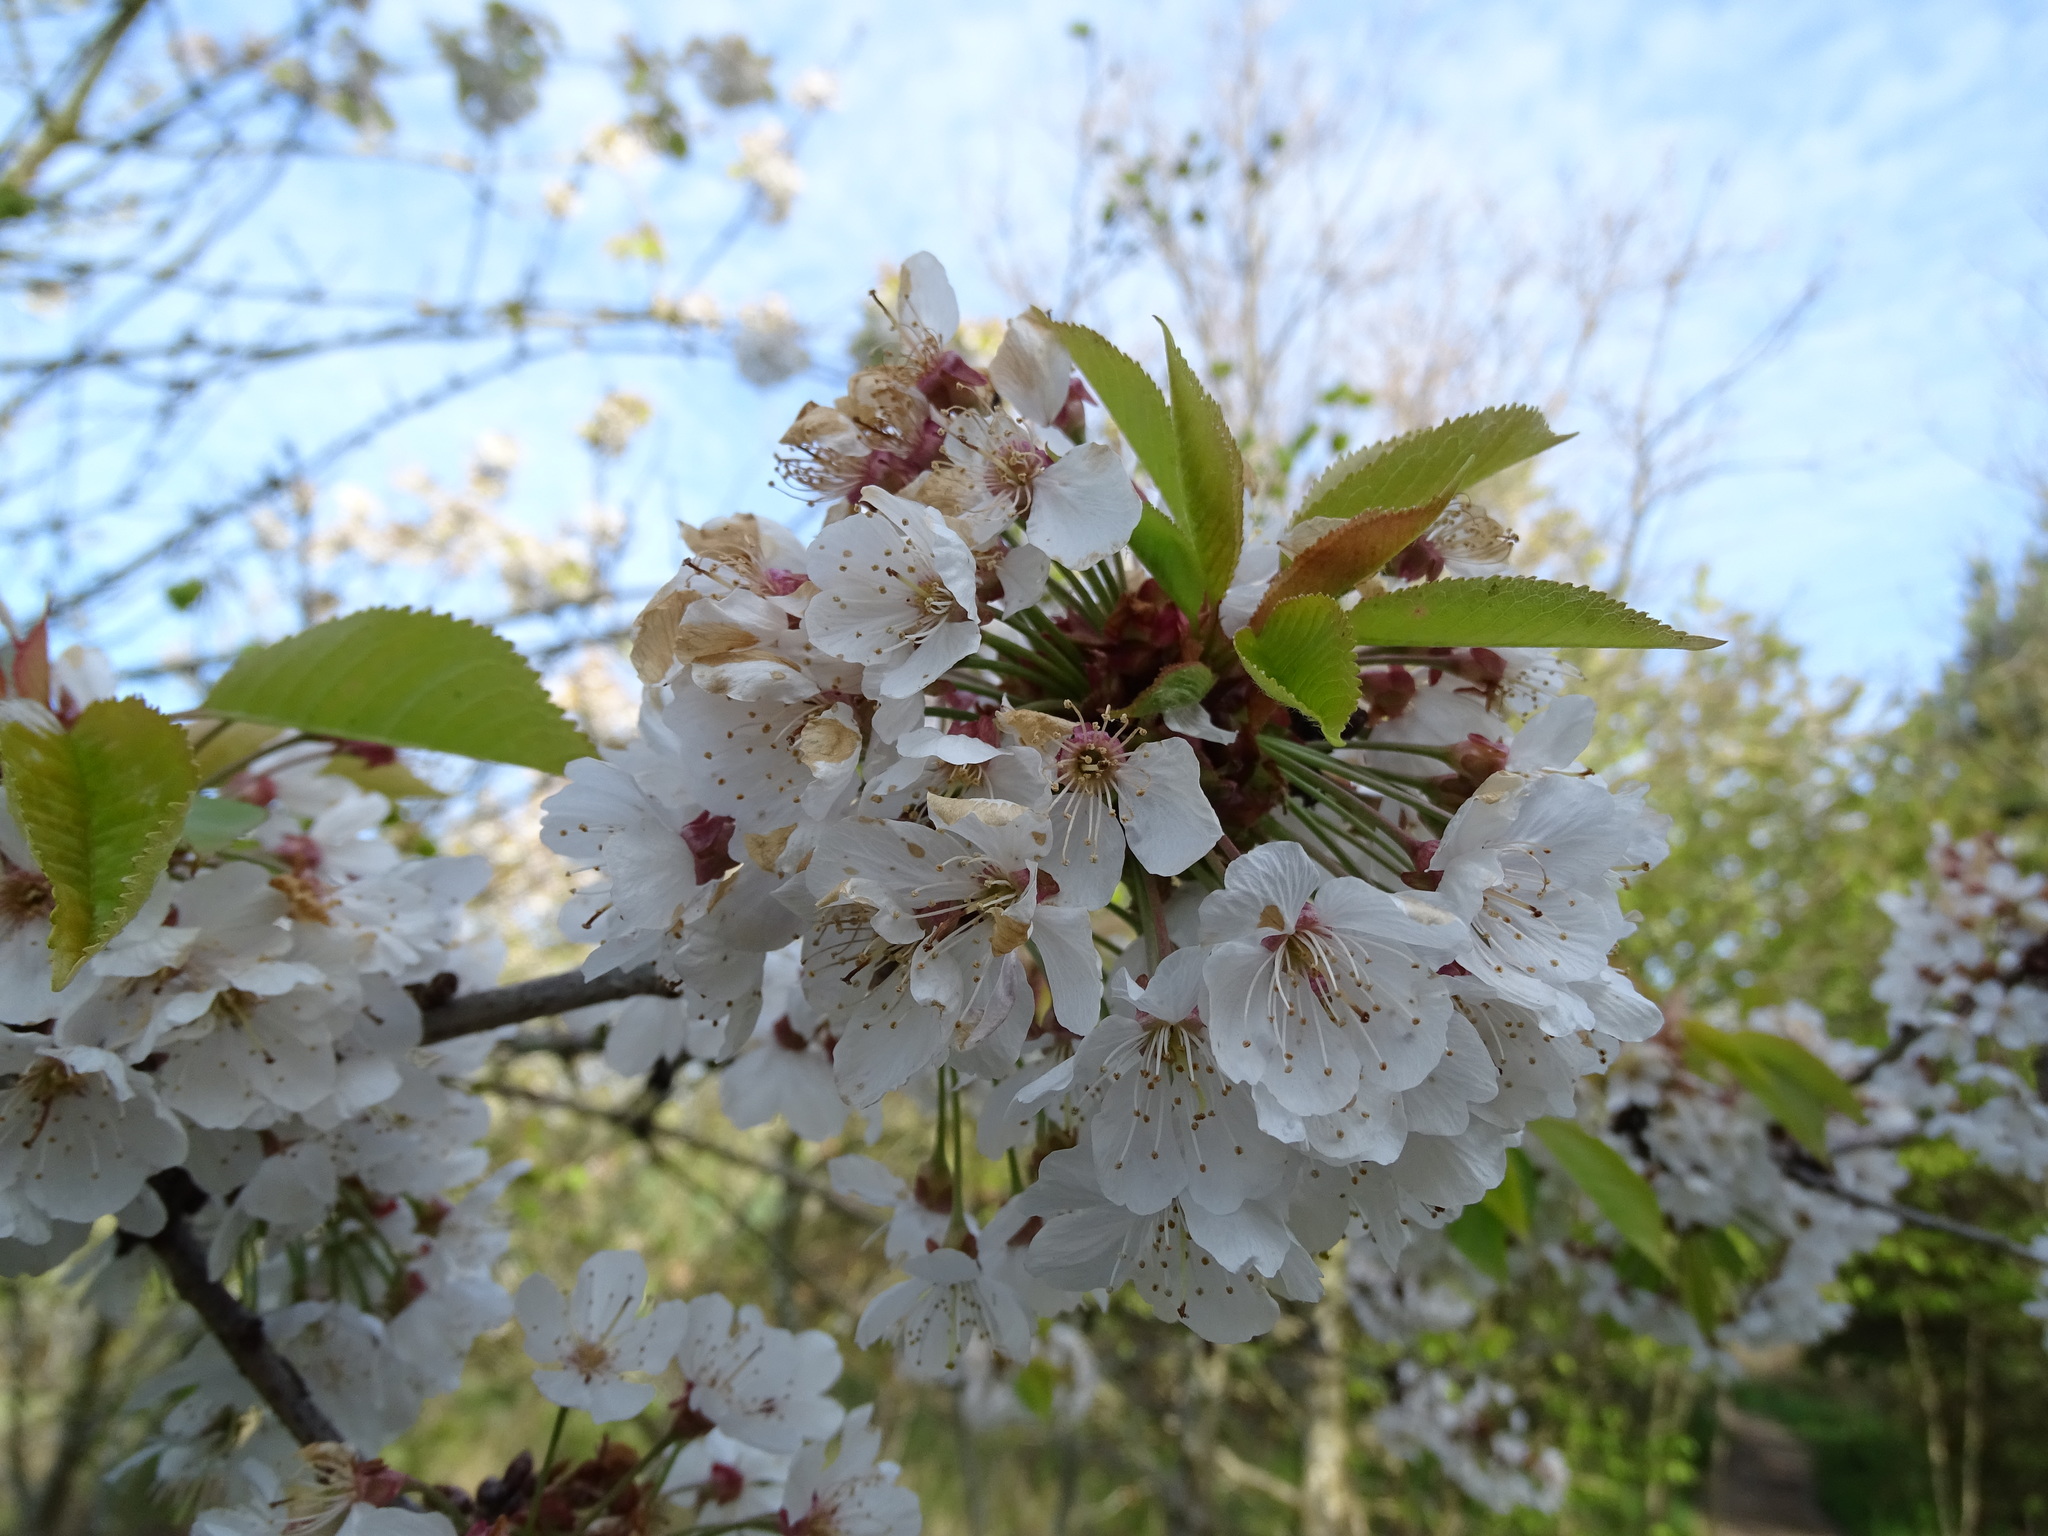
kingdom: Plantae
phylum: Tracheophyta
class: Magnoliopsida
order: Rosales
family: Rosaceae
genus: Prunus
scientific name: Prunus avium
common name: Sweet cherry
